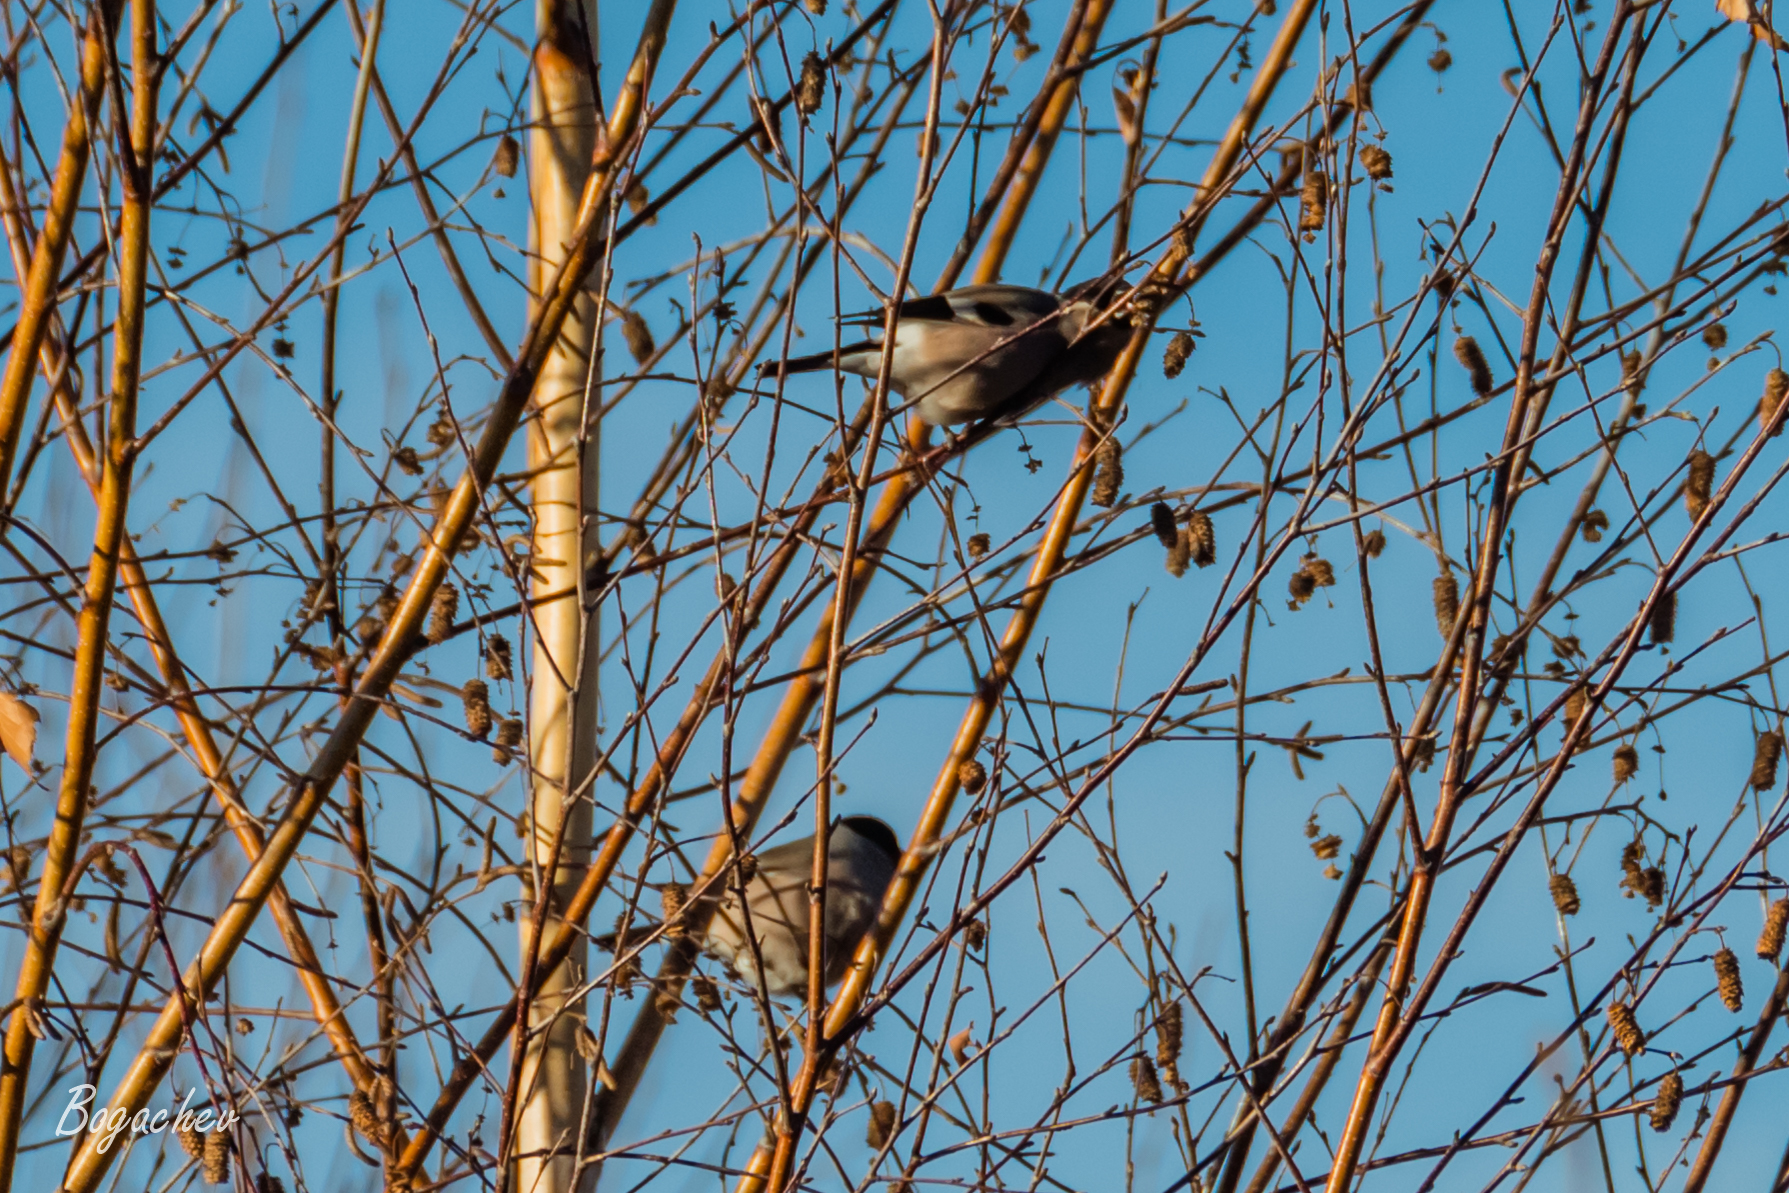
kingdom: Animalia
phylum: Chordata
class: Aves
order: Passeriformes
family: Fringillidae
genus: Pyrrhula
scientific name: Pyrrhula pyrrhula
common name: Eurasian bullfinch
